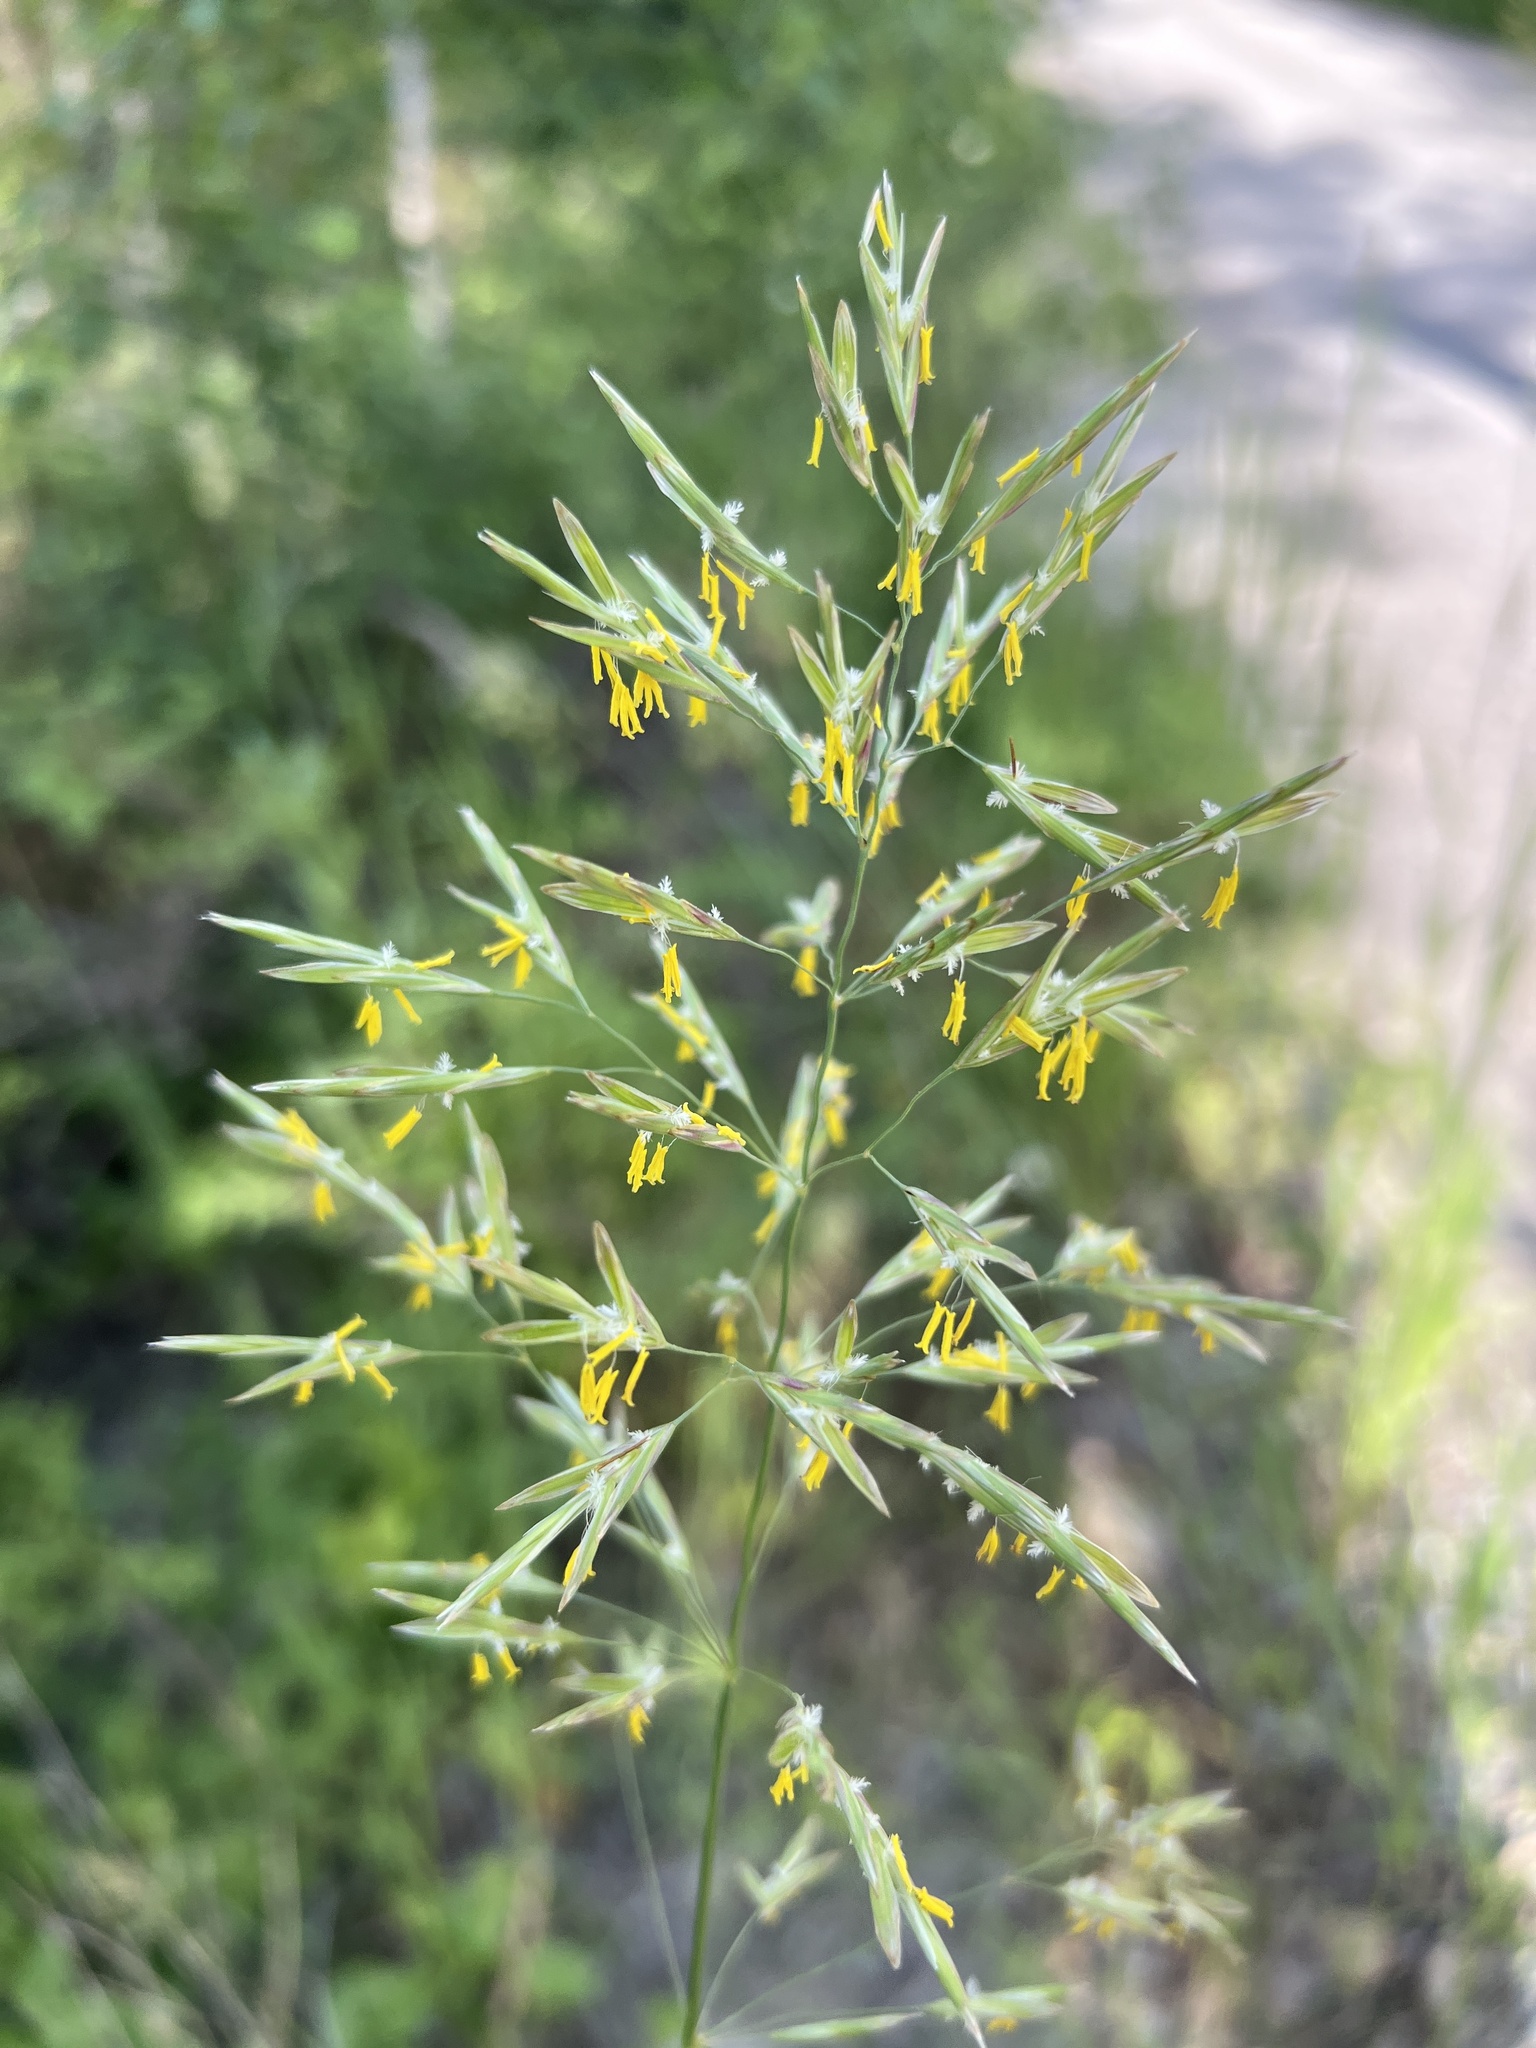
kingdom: Plantae
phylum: Tracheophyta
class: Liliopsida
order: Poales
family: Poaceae
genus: Bromus
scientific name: Bromus inermis
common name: Smooth brome
